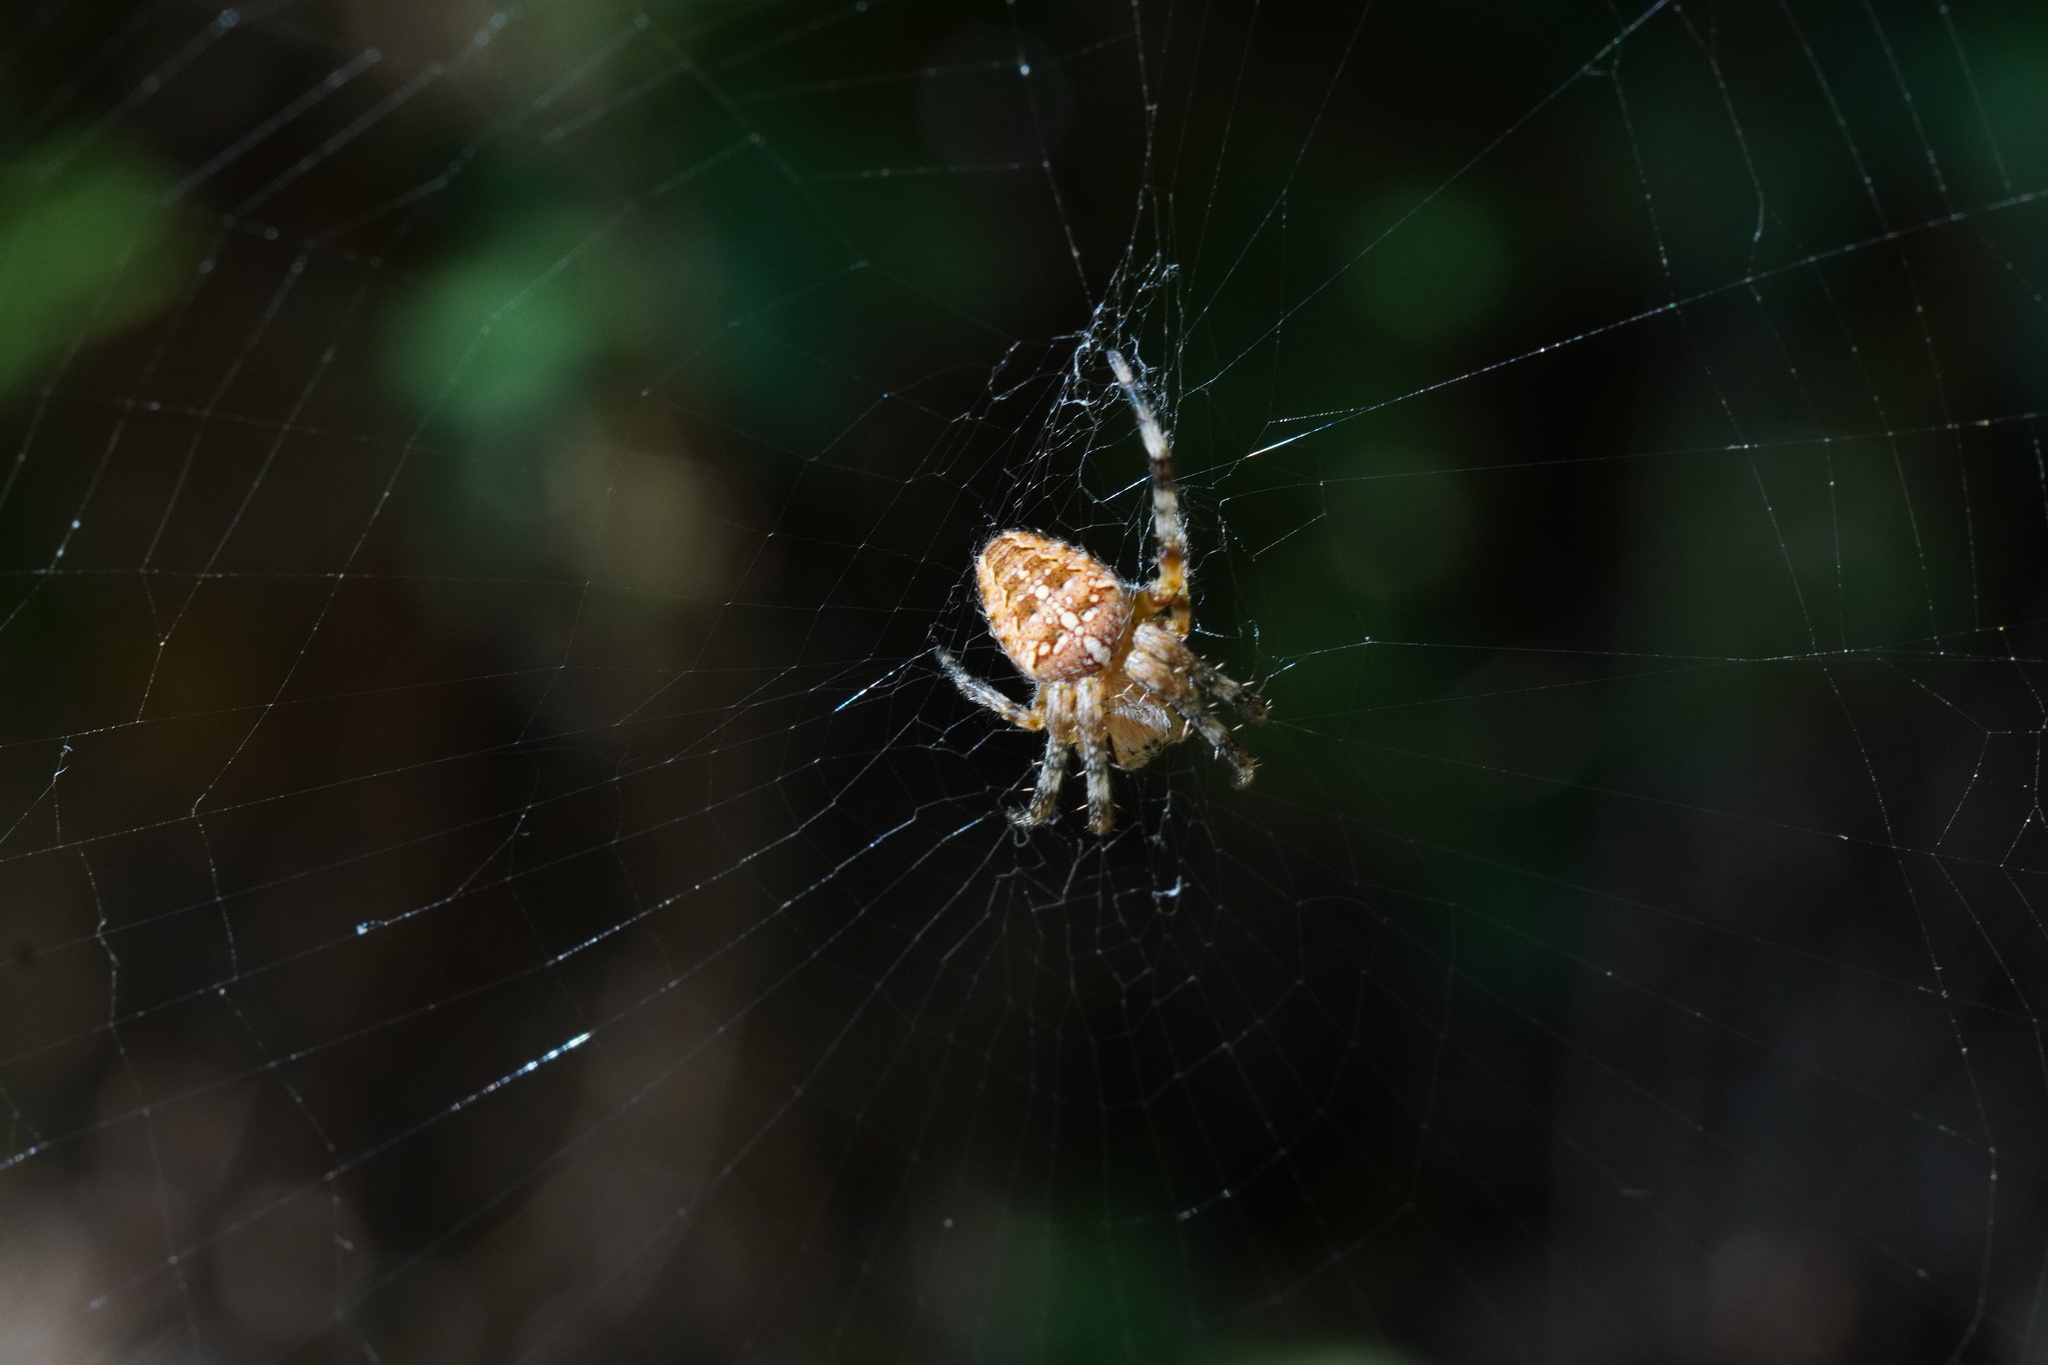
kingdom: Animalia
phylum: Arthropoda
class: Arachnida
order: Araneae
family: Araneidae
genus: Araneus
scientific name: Araneus diadematus
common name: Cross orbweaver
